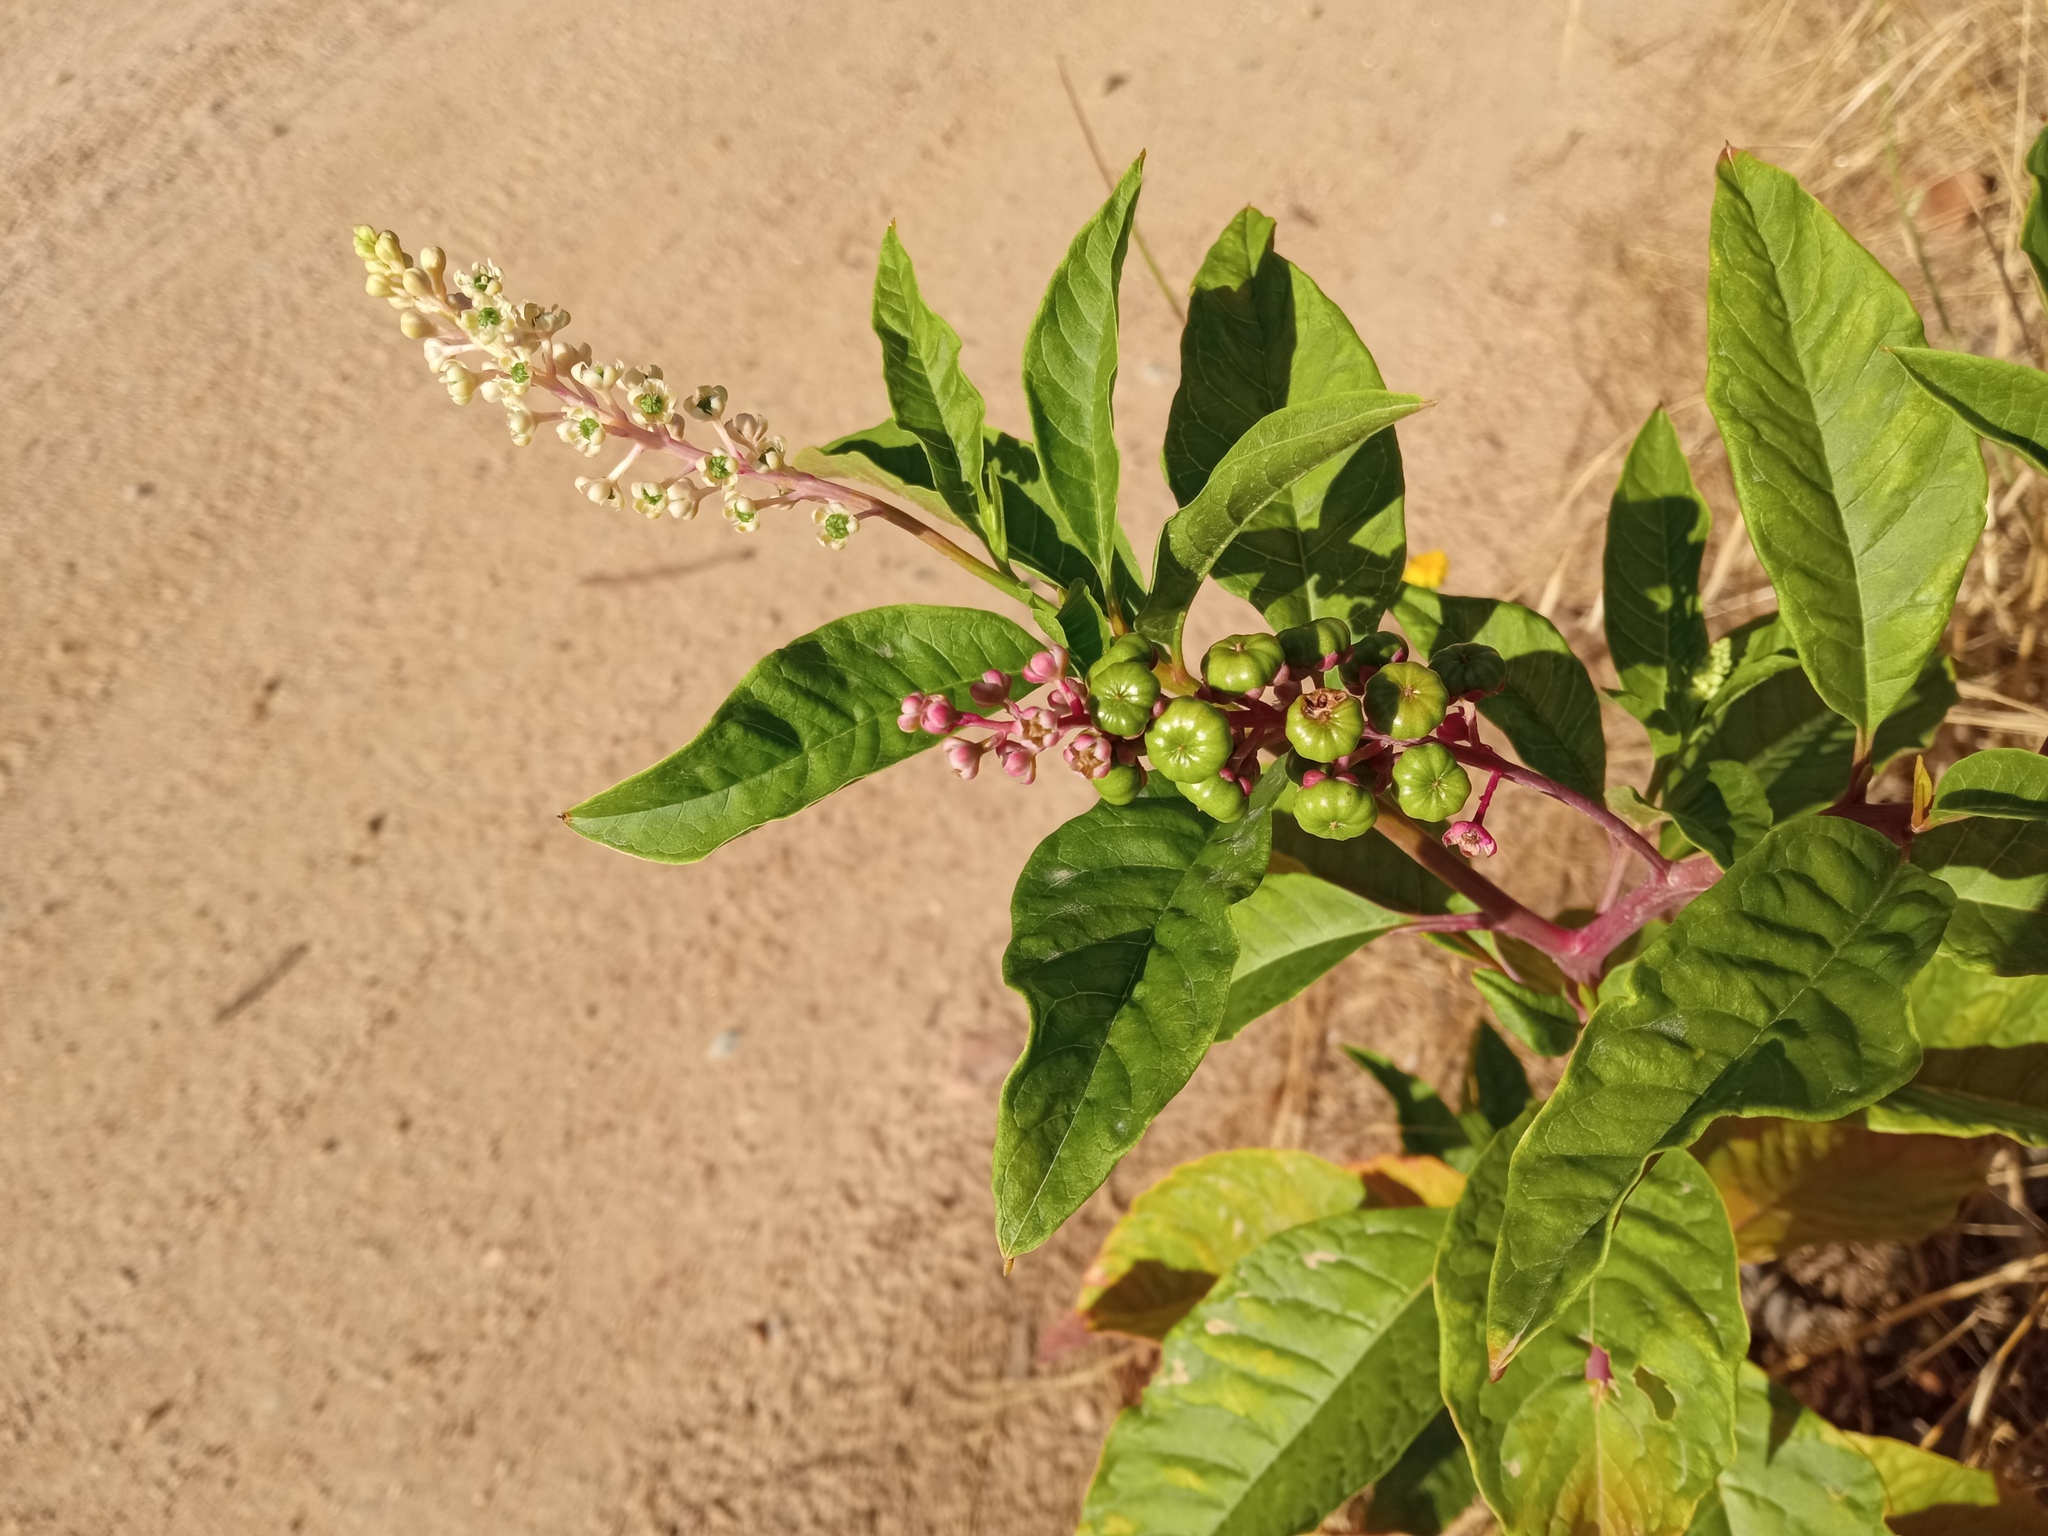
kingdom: Plantae
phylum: Tracheophyta
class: Magnoliopsida
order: Caryophyllales
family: Phytolaccaceae
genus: Phytolacca
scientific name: Phytolacca americana
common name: American pokeweed
